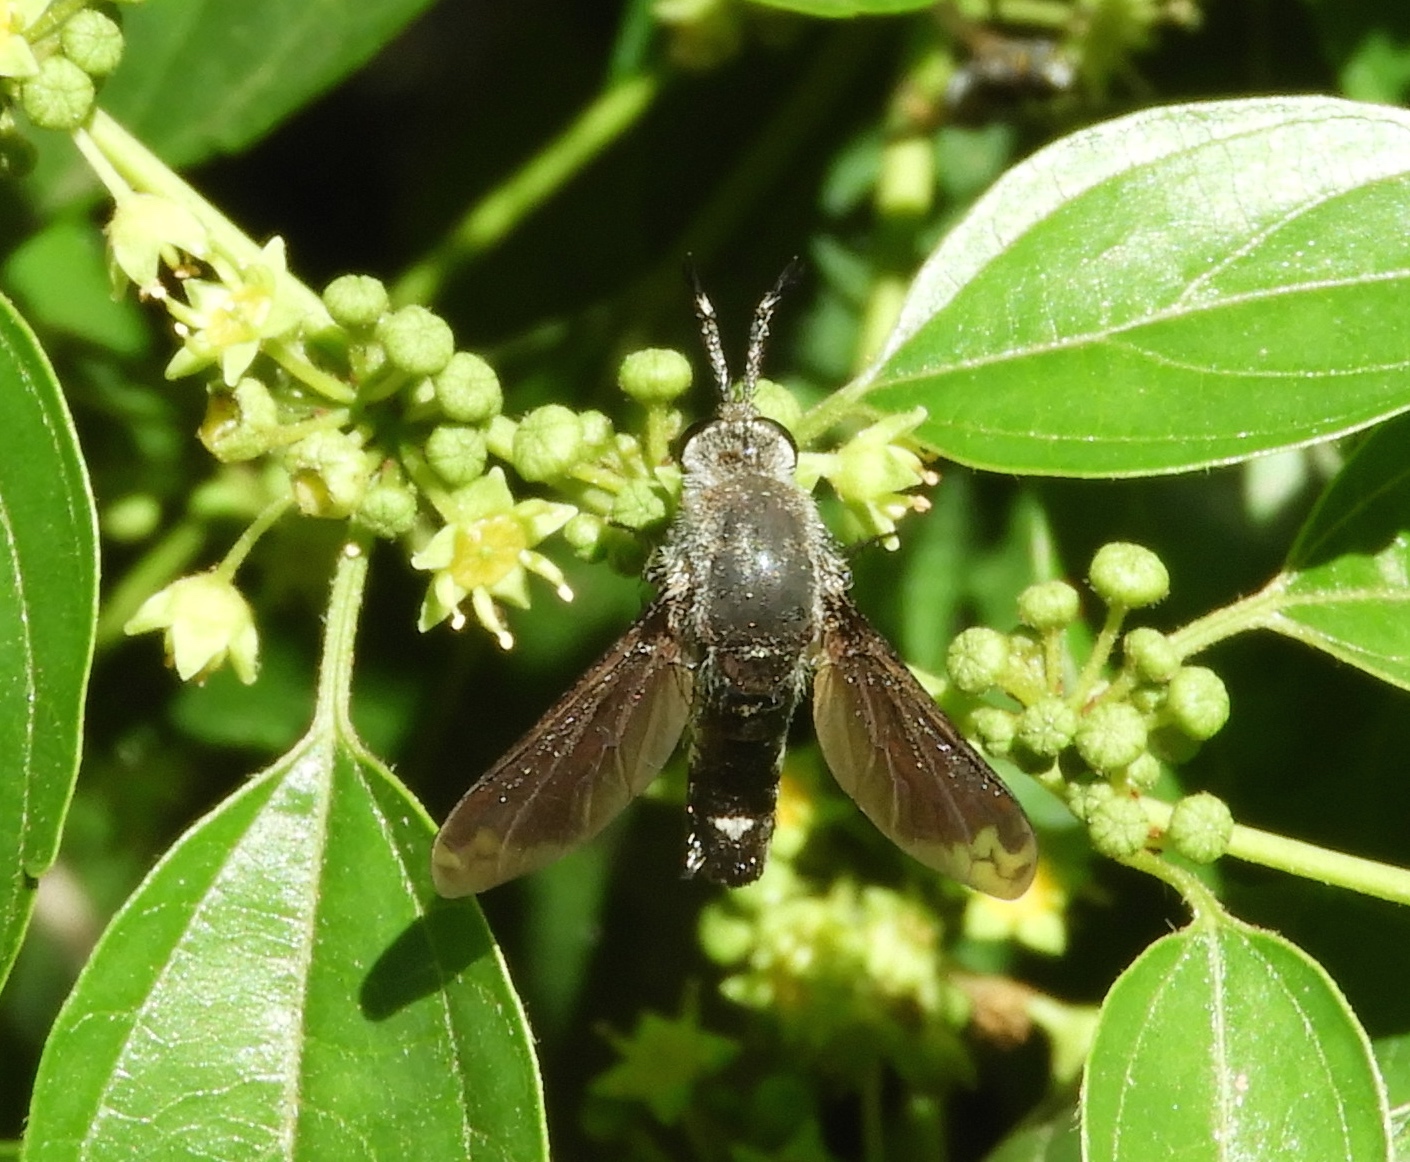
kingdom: Animalia
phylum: Arthropoda
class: Insecta
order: Diptera
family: Bombyliidae
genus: Lepidophora
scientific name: Lepidophora vetusta
